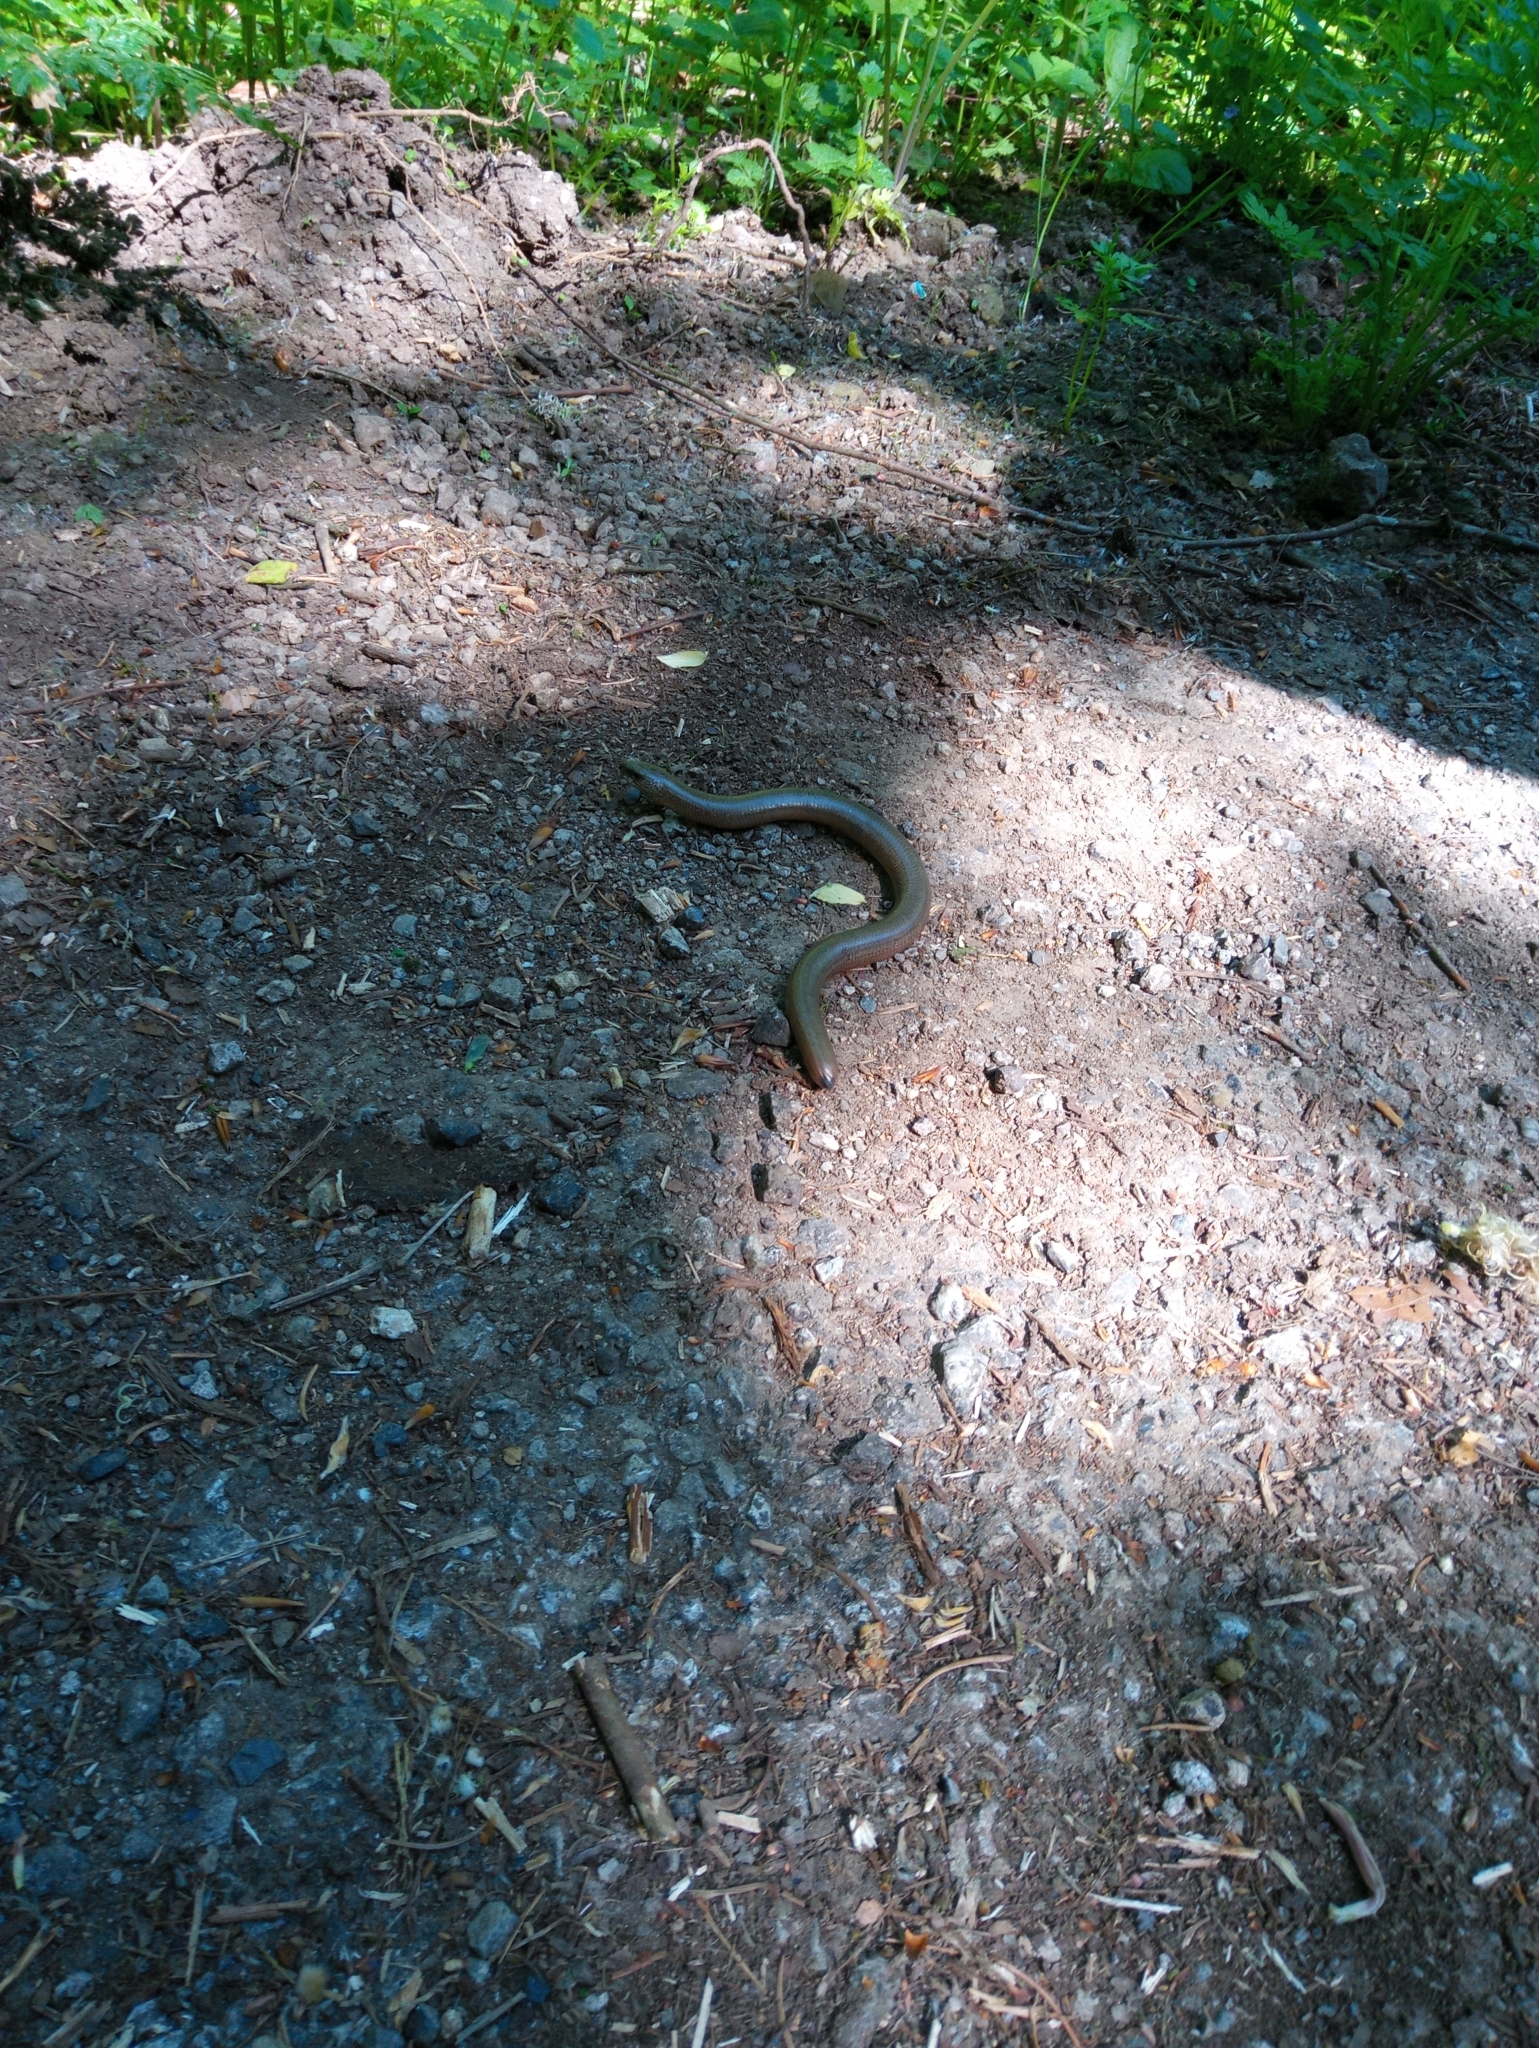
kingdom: Animalia
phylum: Chordata
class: Squamata
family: Anguidae
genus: Anguis
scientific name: Anguis fragilis
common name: Slow worm
